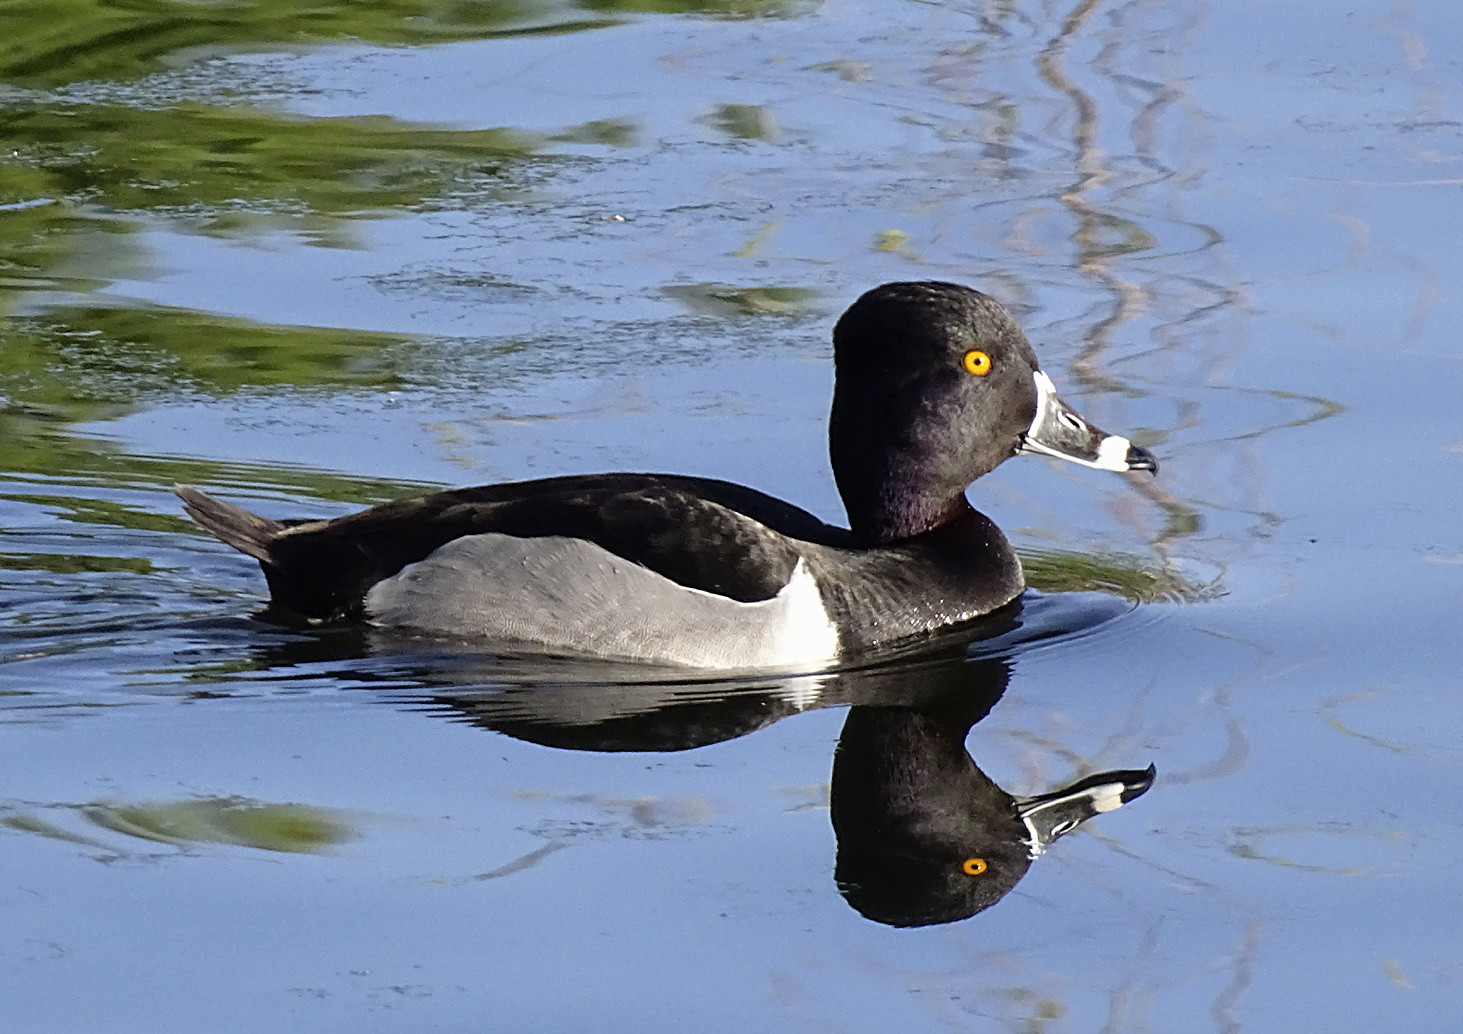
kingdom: Animalia
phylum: Chordata
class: Aves
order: Anseriformes
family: Anatidae
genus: Aythya
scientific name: Aythya collaris
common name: Ring-necked duck
